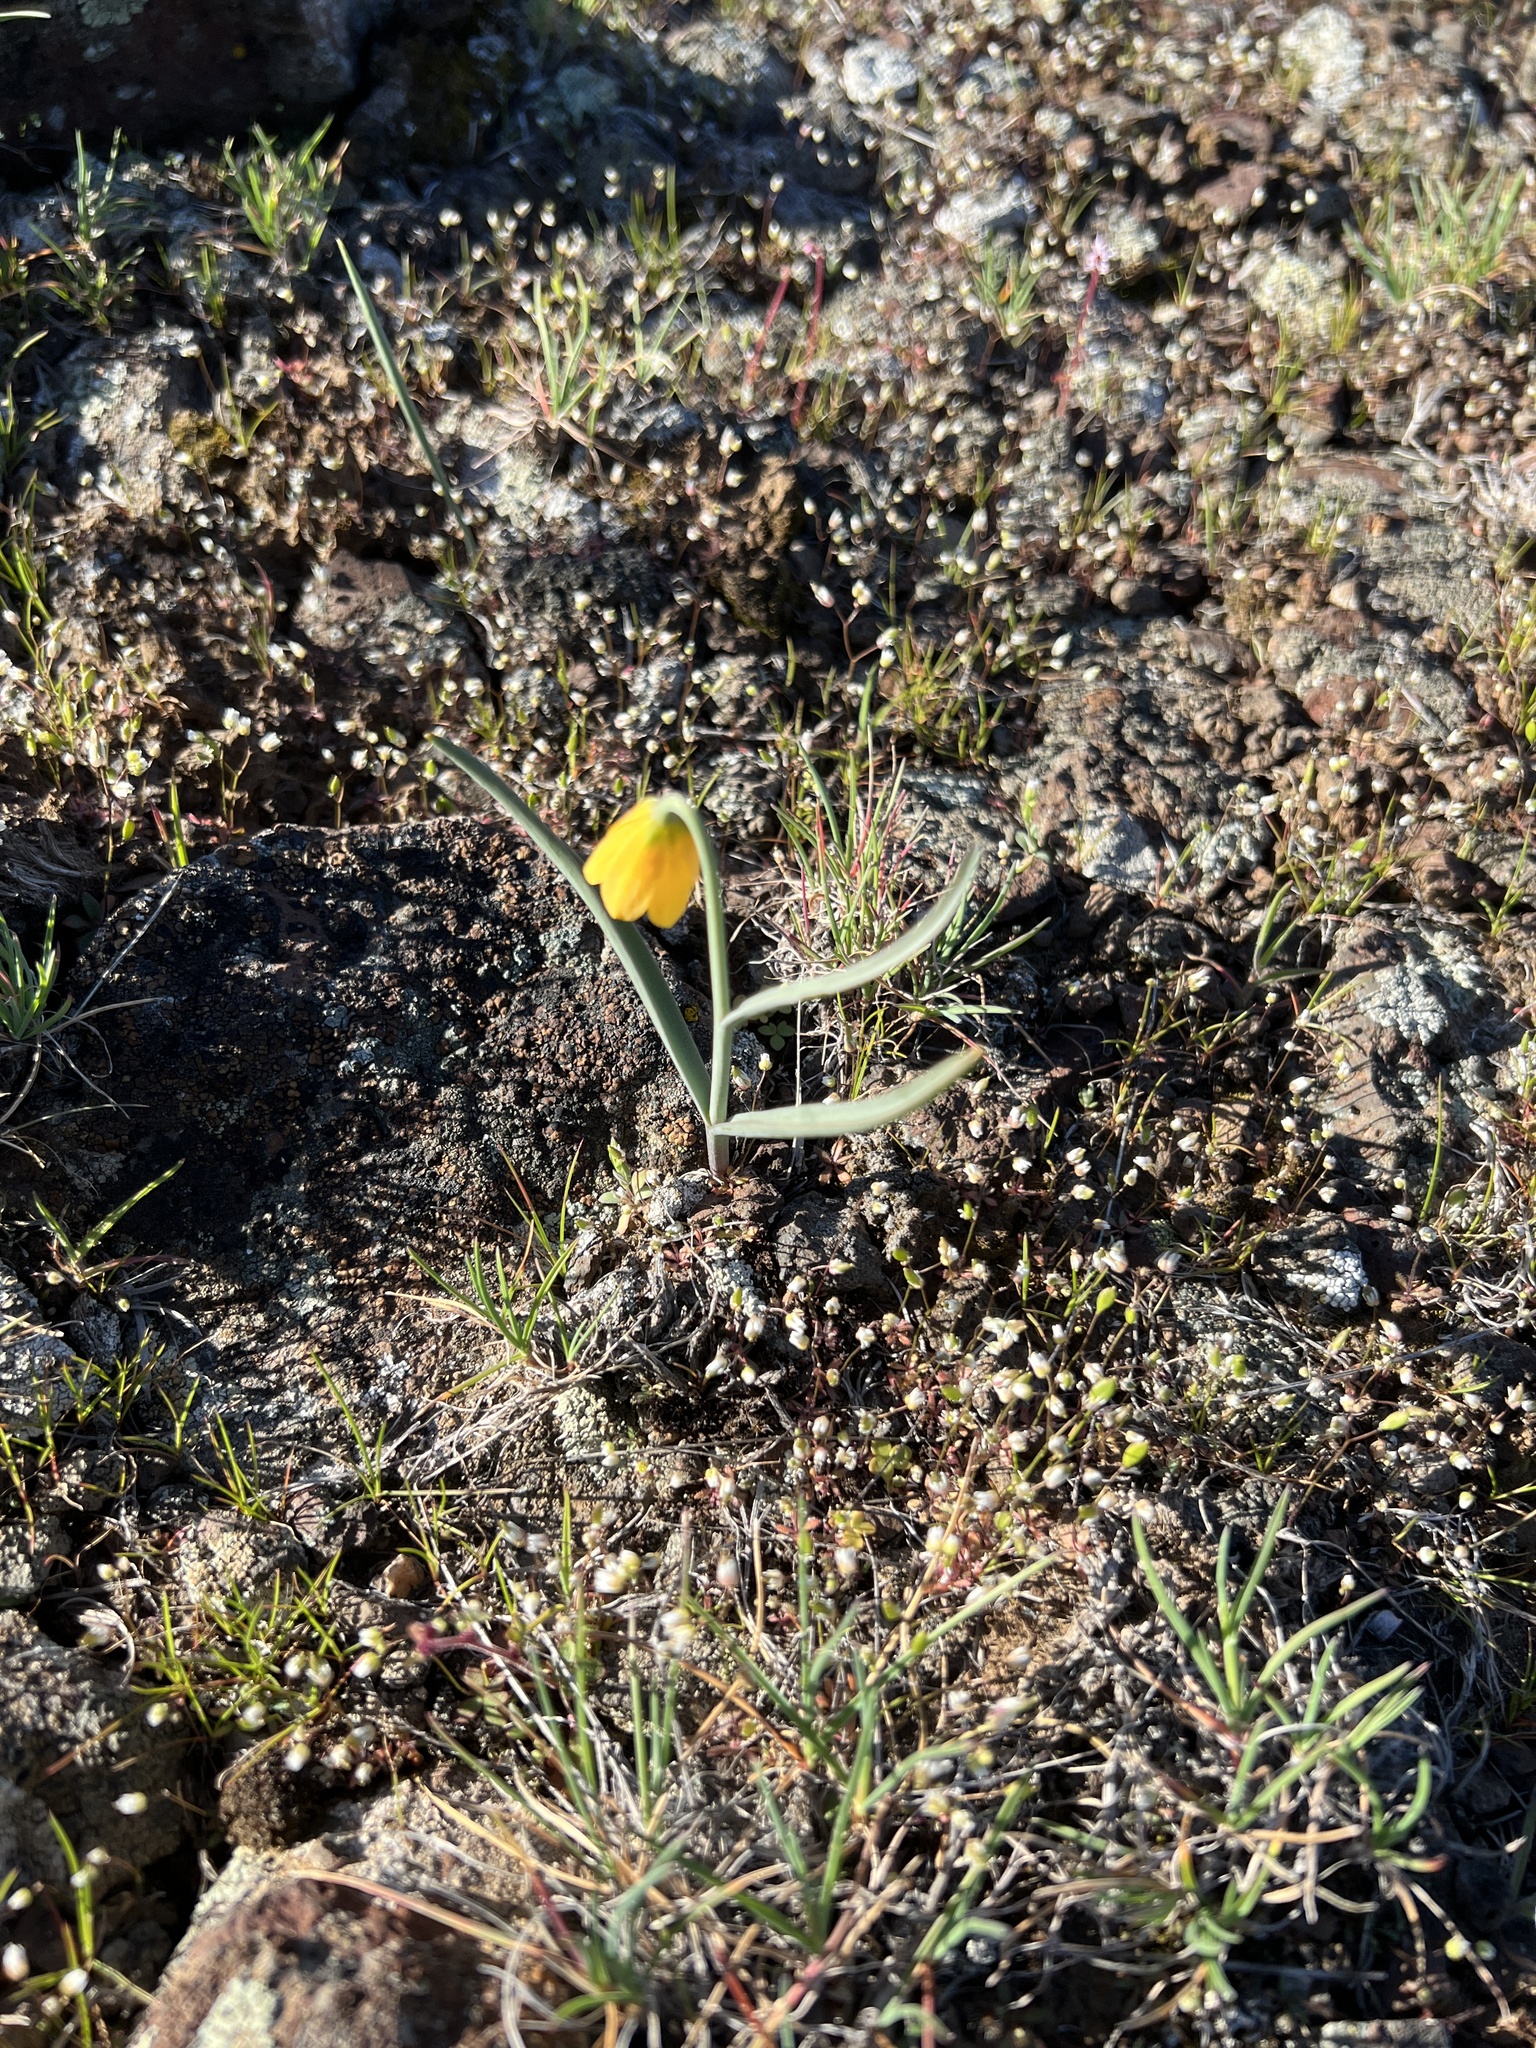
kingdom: Plantae
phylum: Tracheophyta
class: Liliopsida
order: Liliales
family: Liliaceae
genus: Fritillaria
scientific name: Fritillaria pudica
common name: Yellow fritillary
